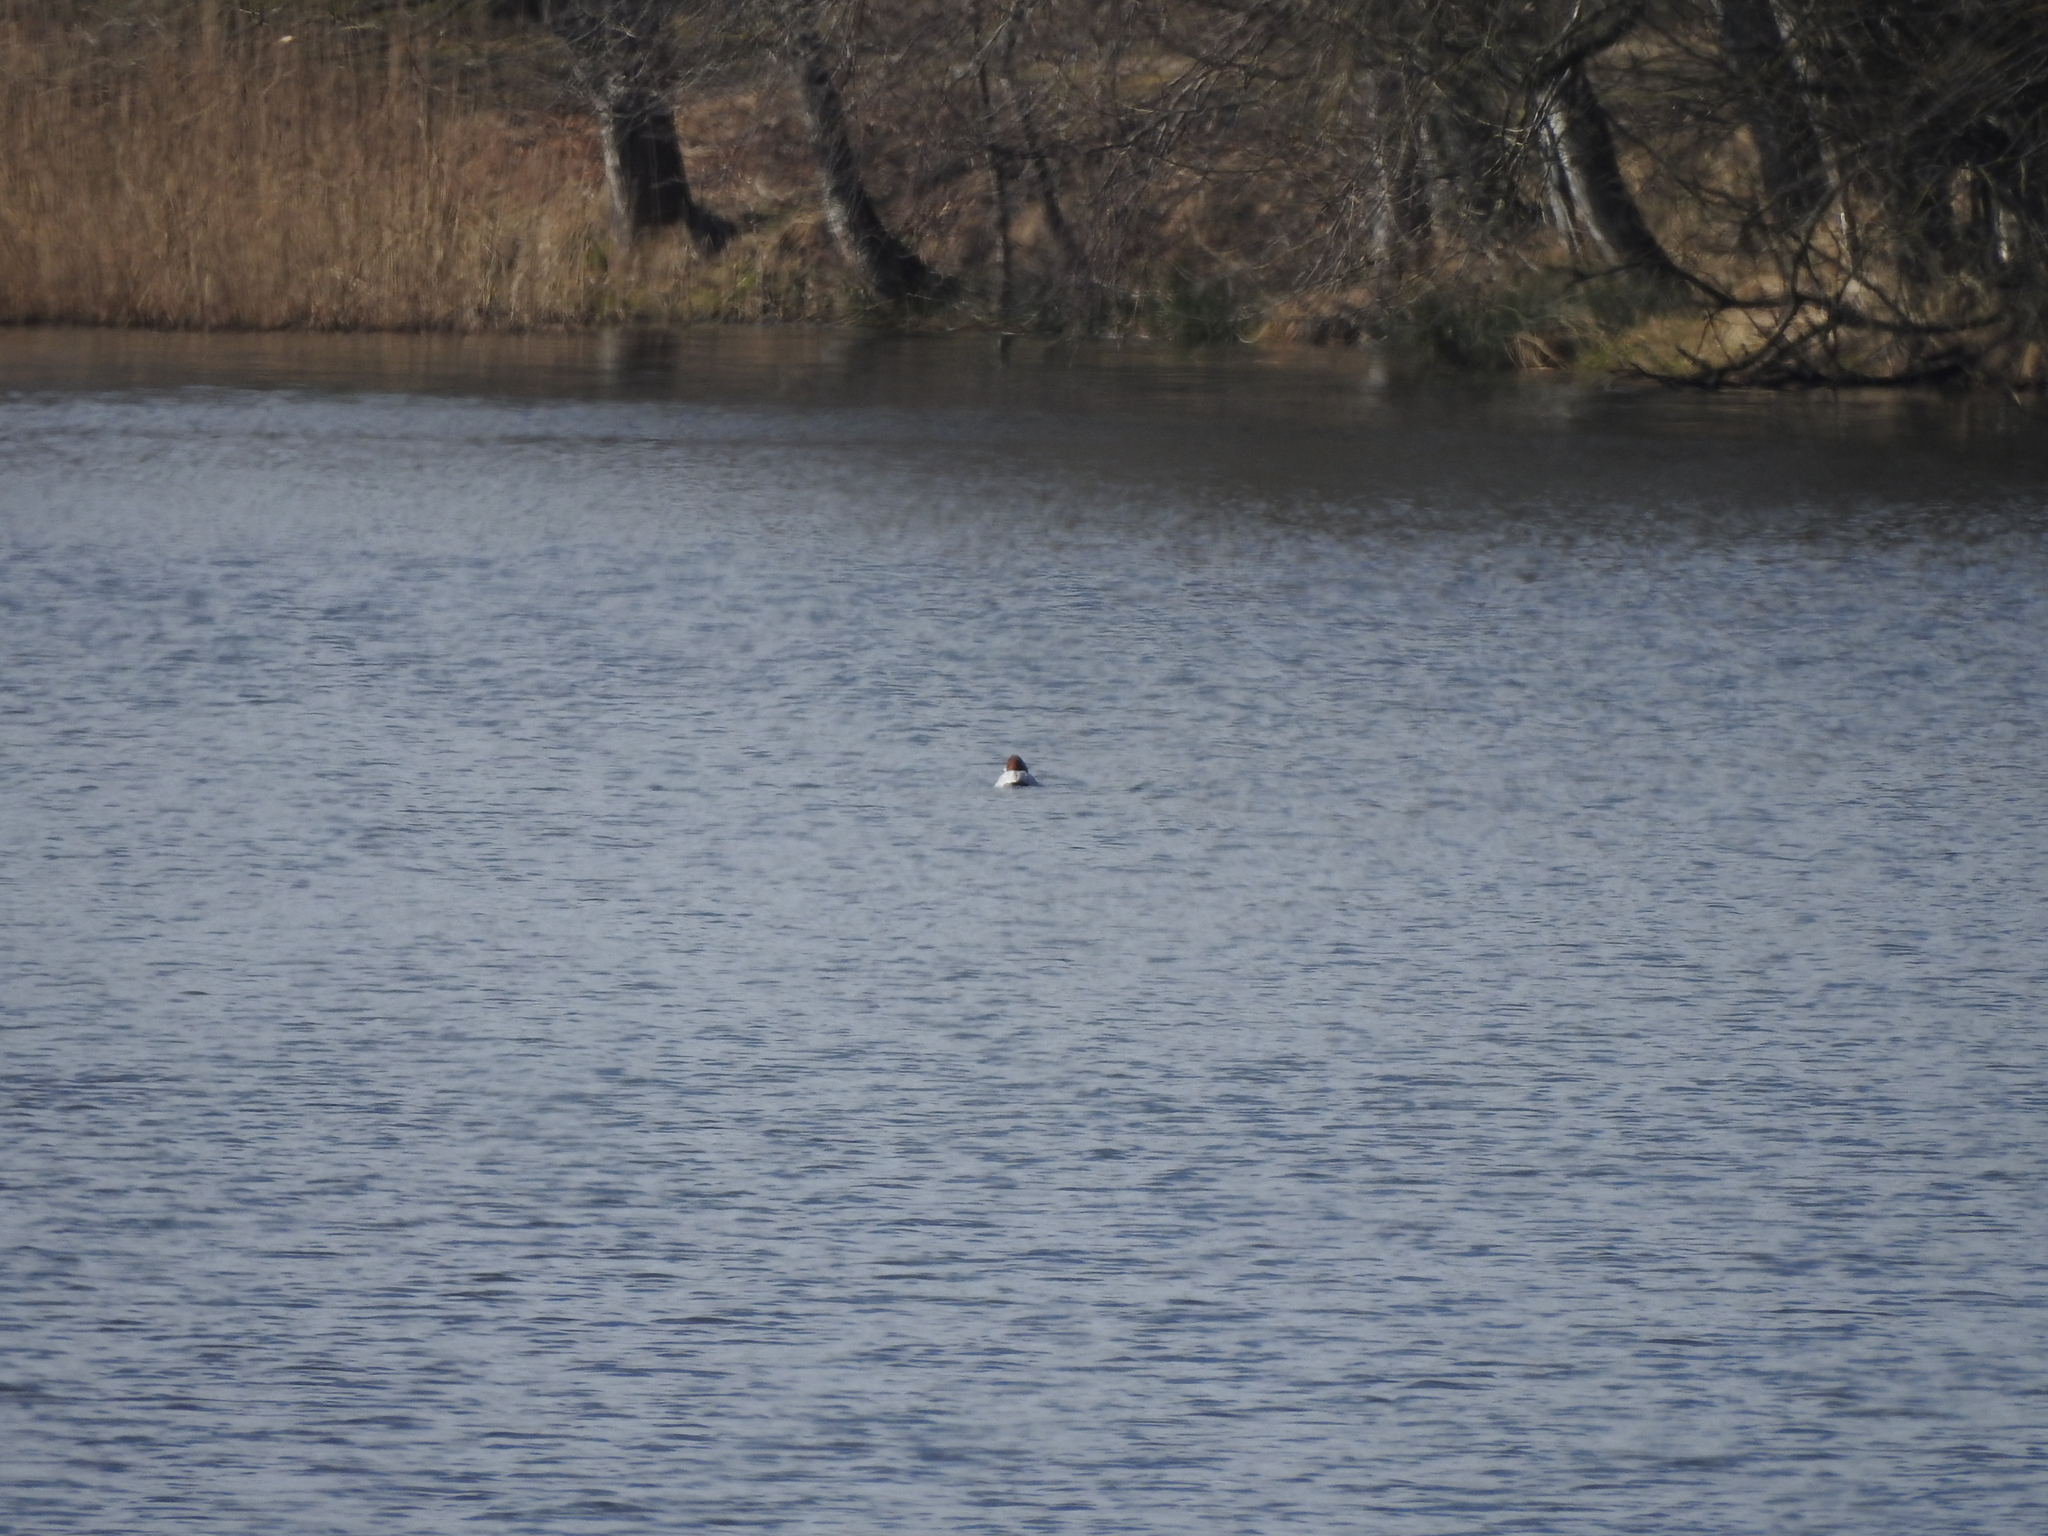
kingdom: Animalia
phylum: Chordata
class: Aves
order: Anseriformes
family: Anatidae
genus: Aythya
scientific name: Aythya ferina
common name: Common pochard
